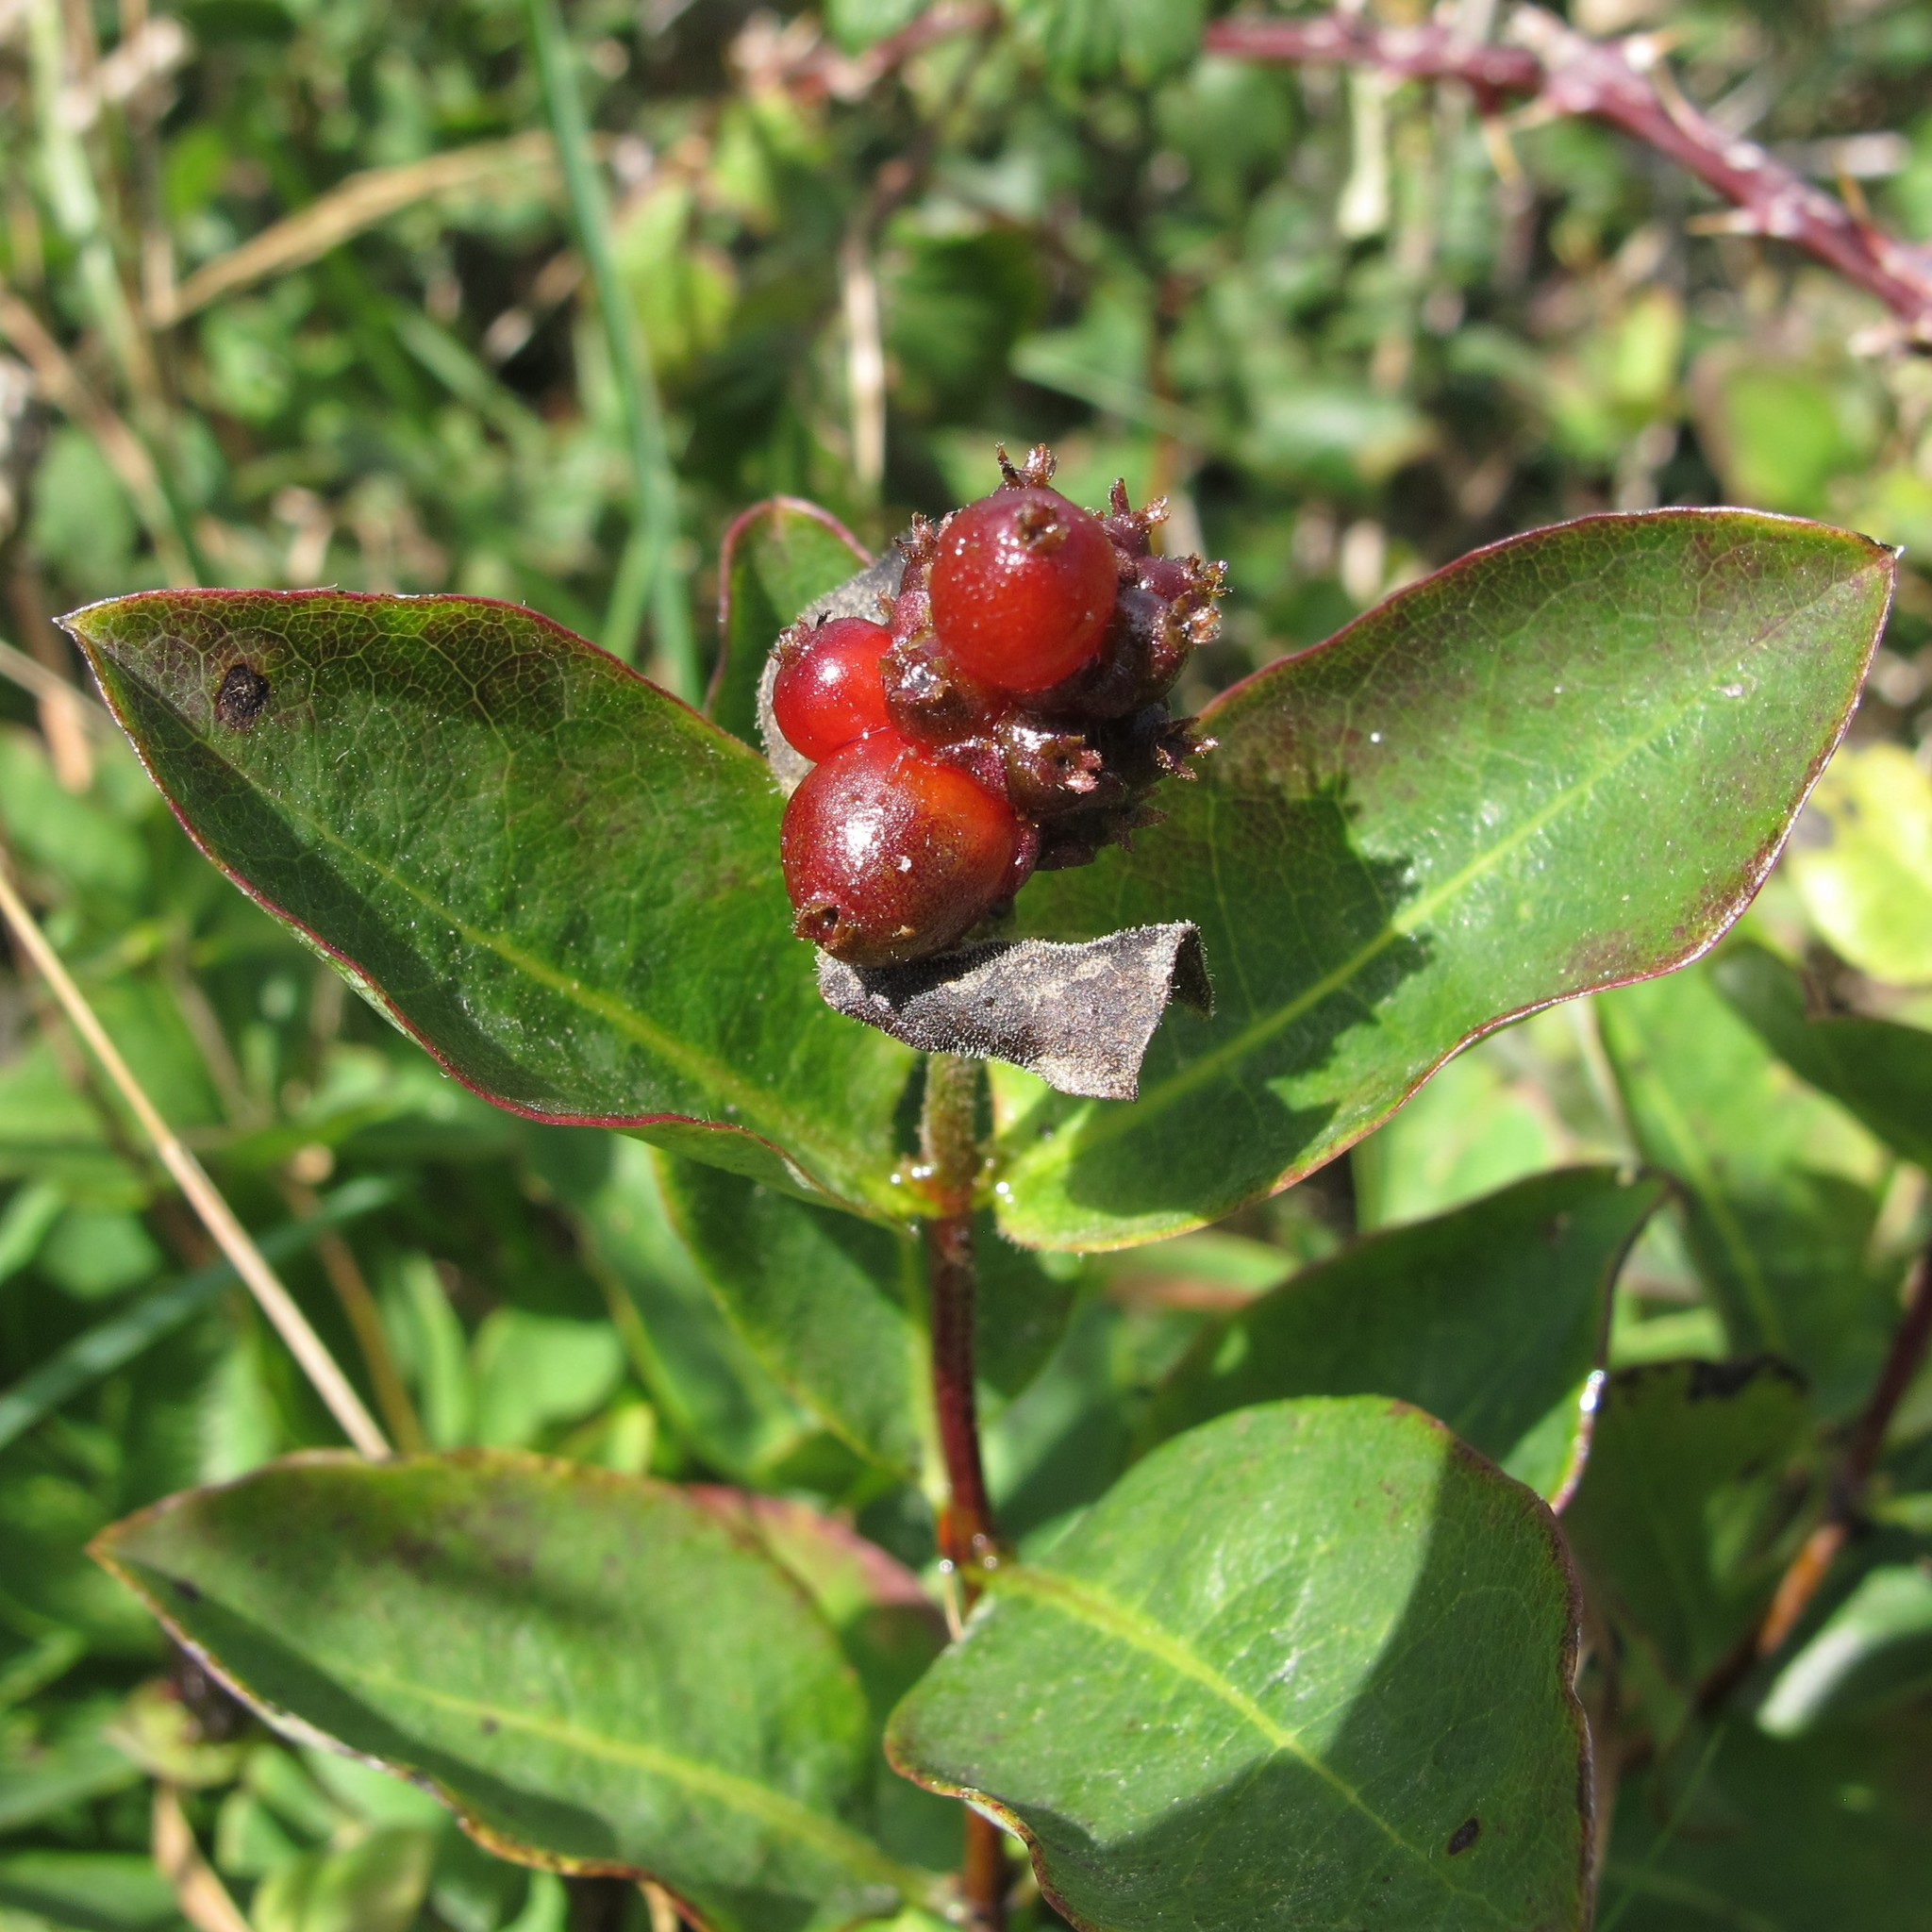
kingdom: Plantae
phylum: Tracheophyta
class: Magnoliopsida
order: Dipsacales
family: Caprifoliaceae
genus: Lonicera
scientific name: Lonicera periclymenum
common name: European honeysuckle
